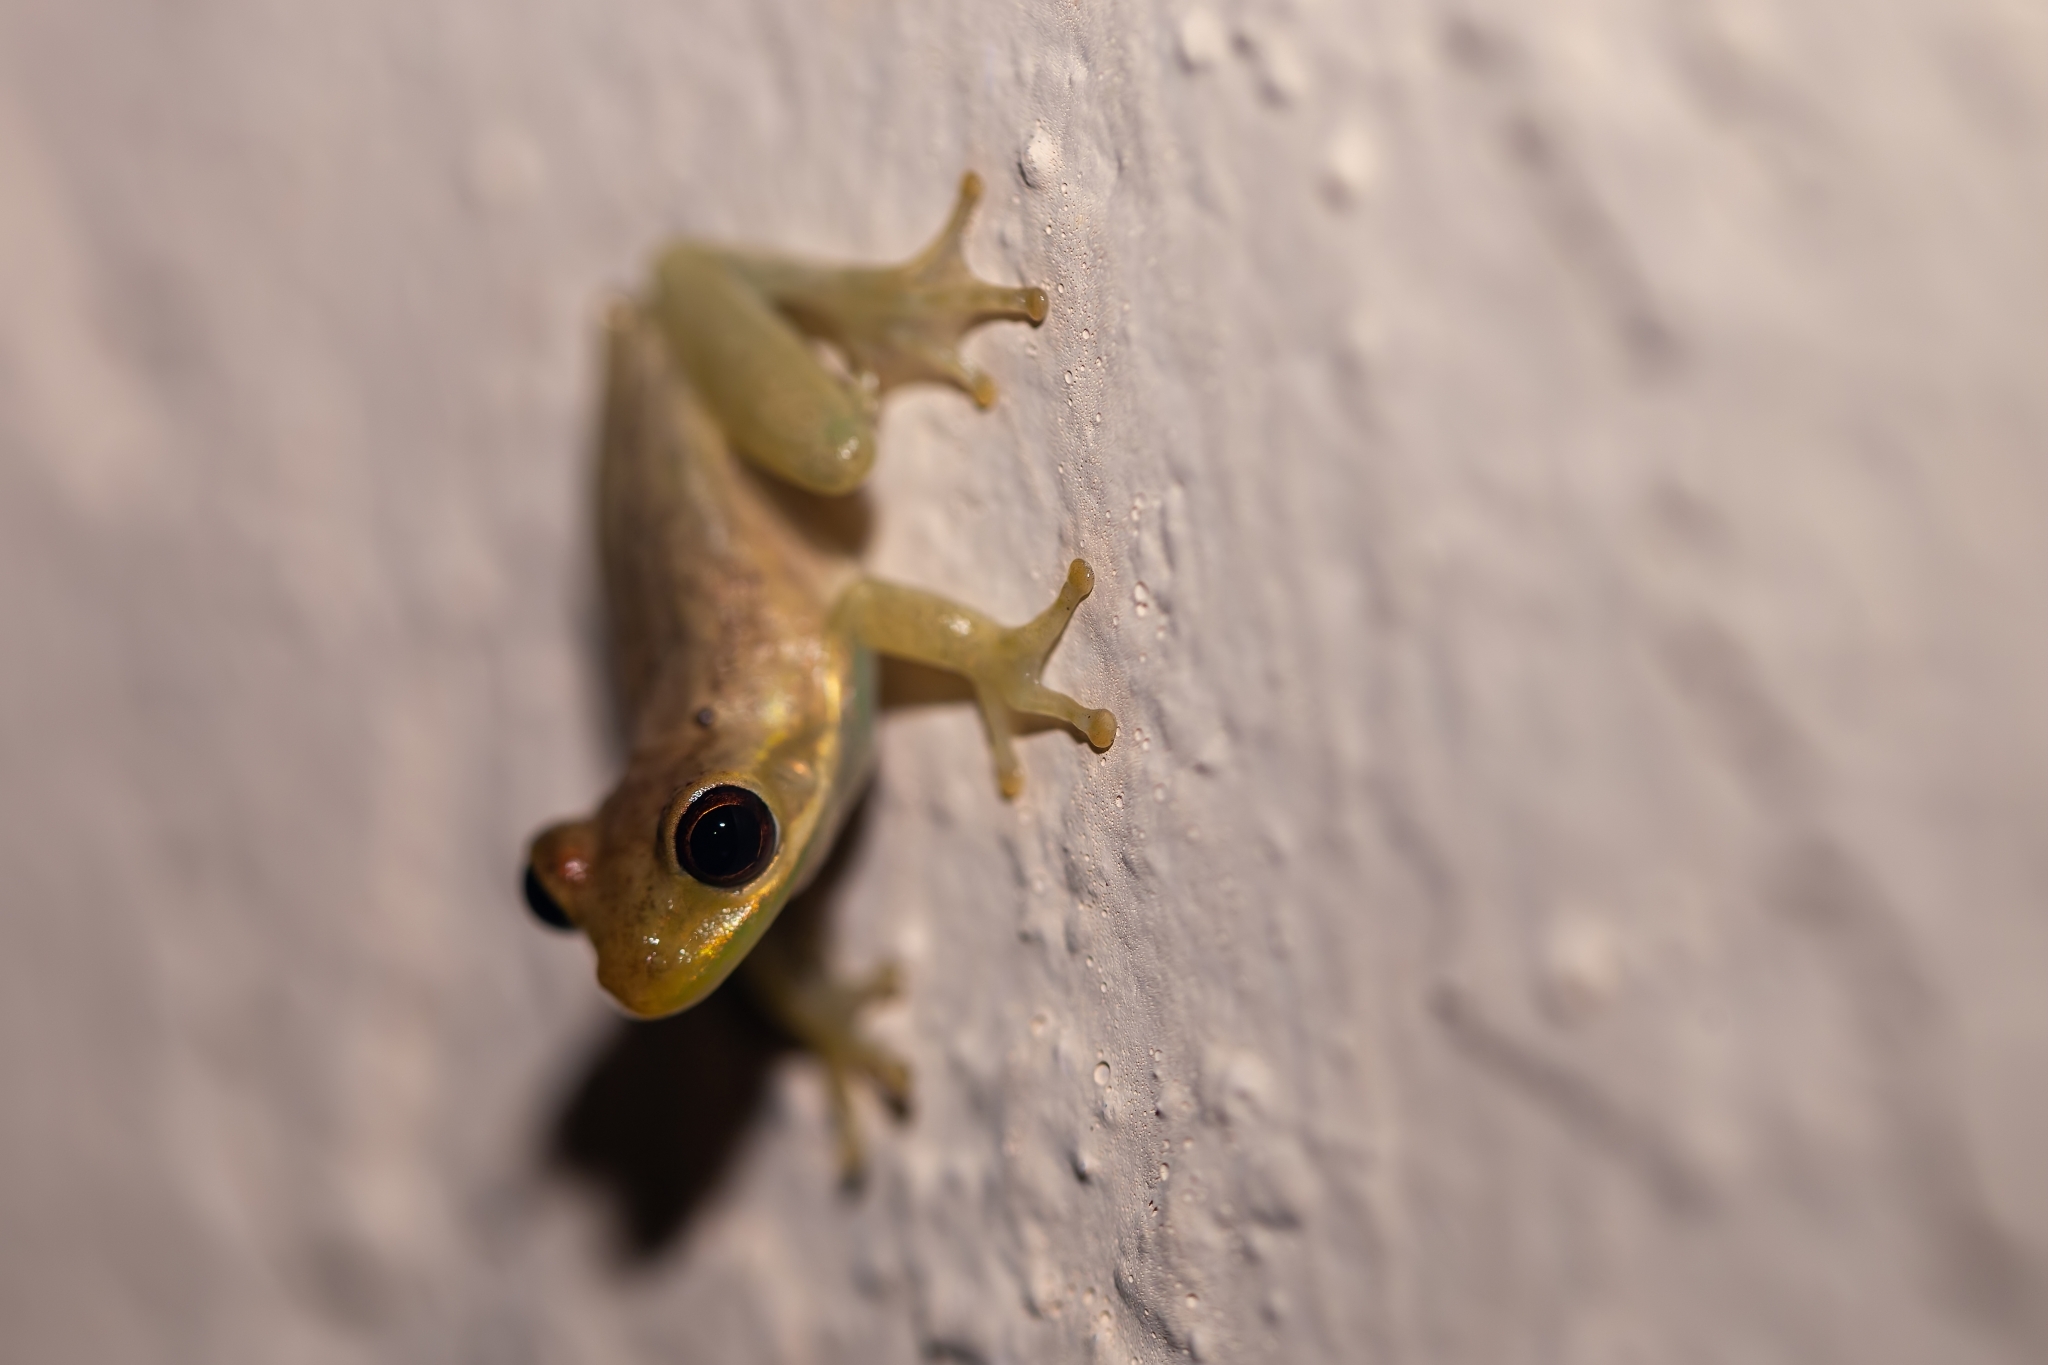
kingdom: Animalia
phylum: Chordata
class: Amphibia
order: Anura
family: Hylidae
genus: Osteopilus
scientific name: Osteopilus septentrionalis
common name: Cuban treefrog
